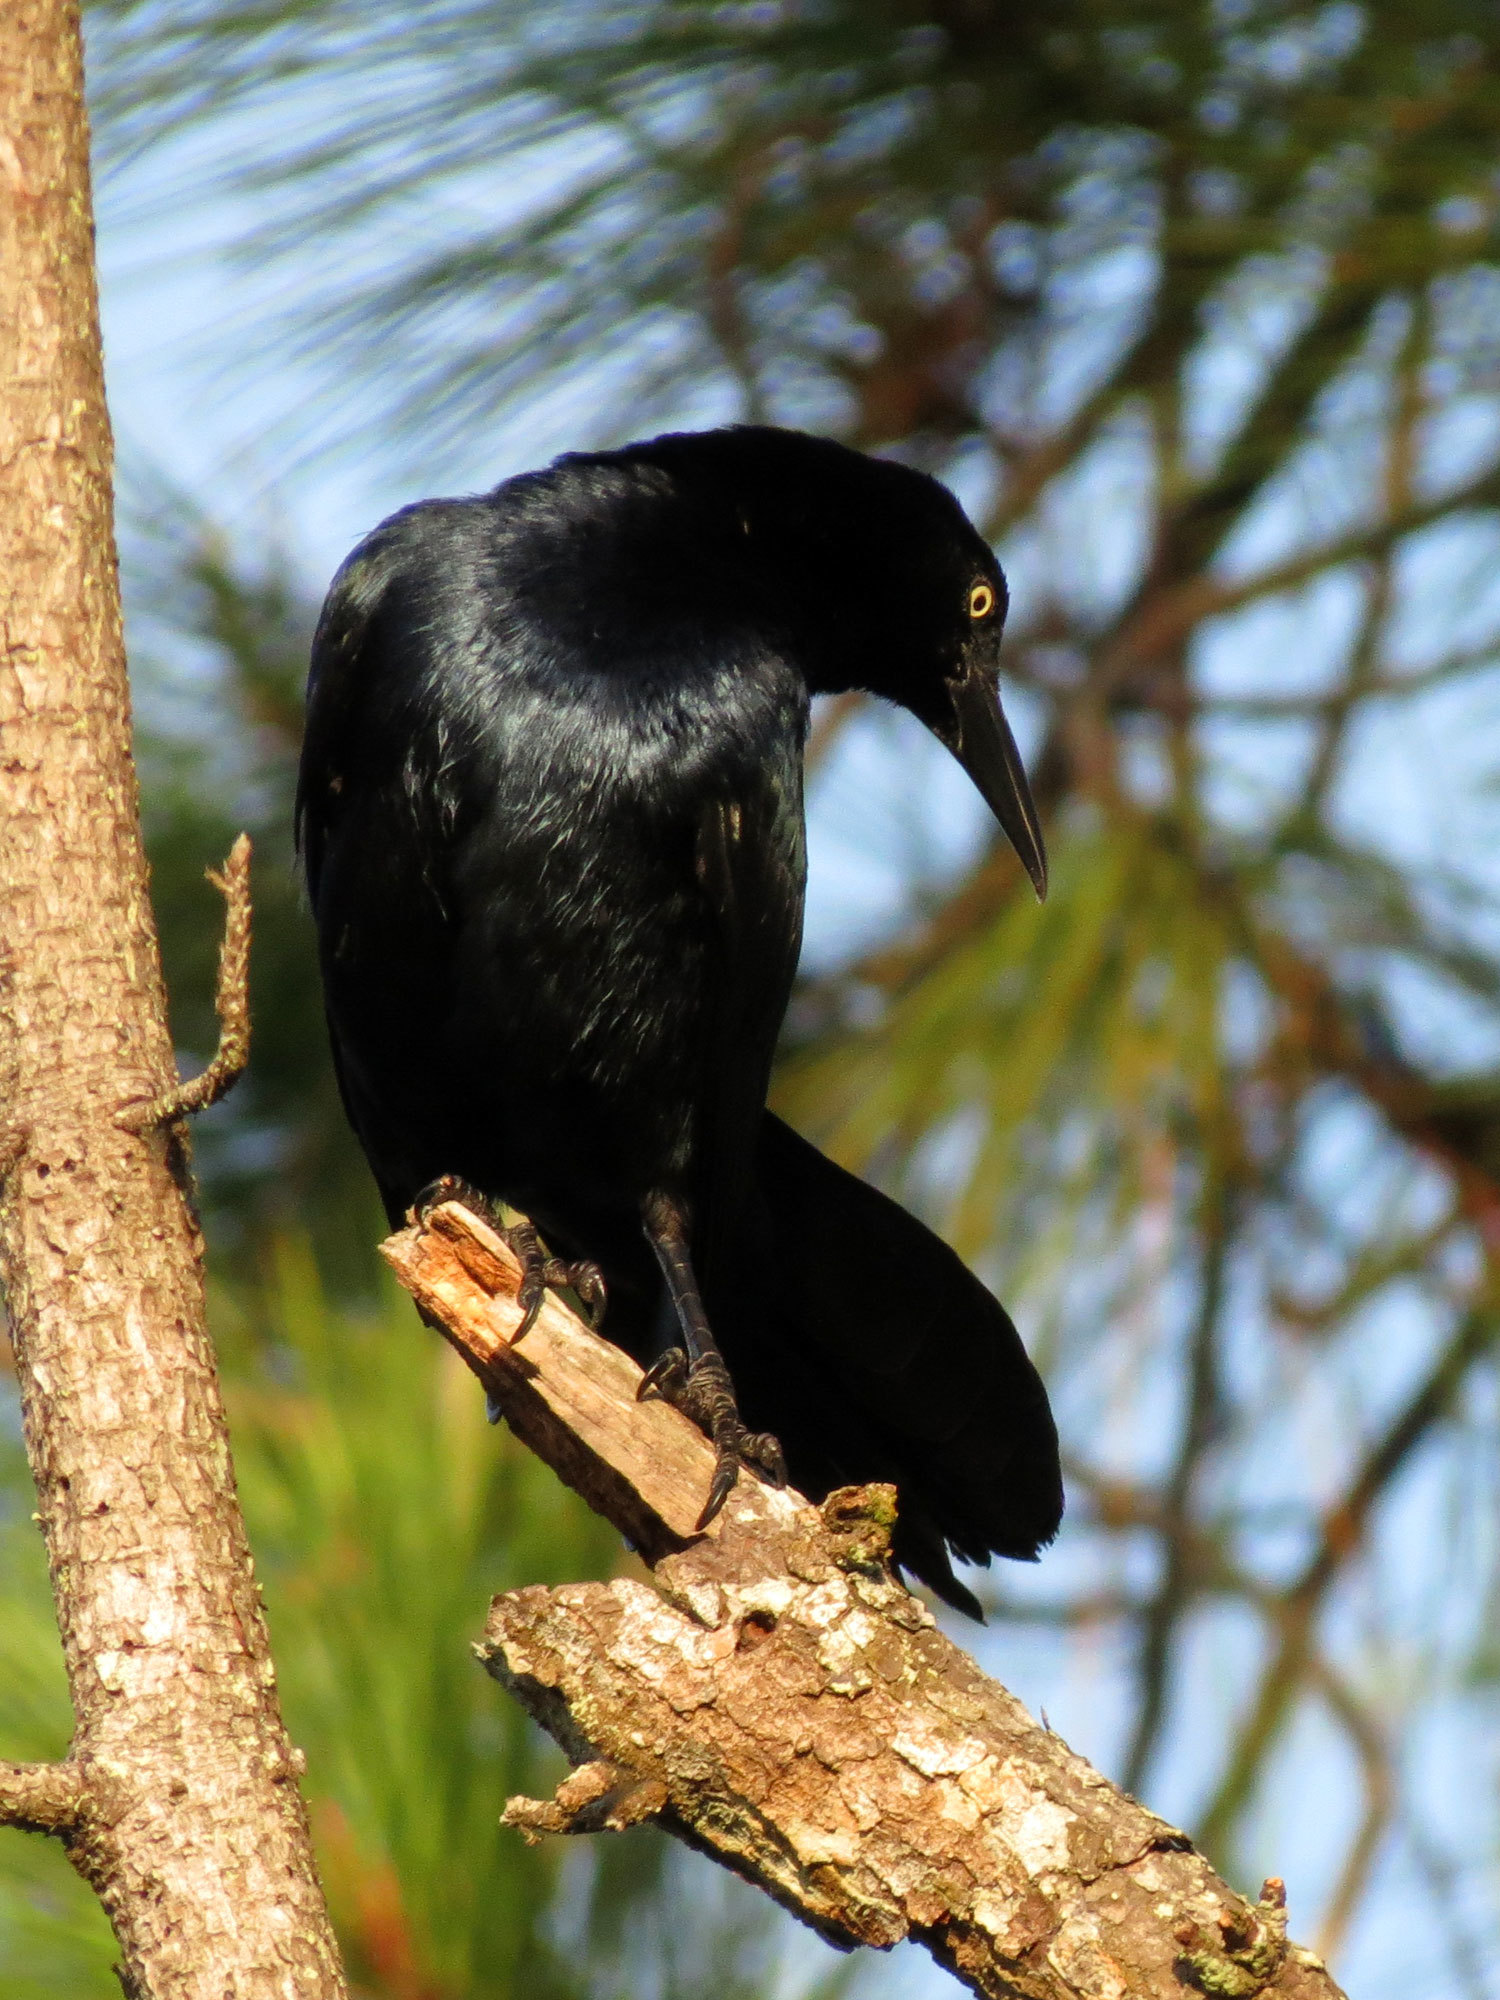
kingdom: Animalia
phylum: Chordata
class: Aves
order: Passeriformes
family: Icteridae
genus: Quiscalus
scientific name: Quiscalus mexicanus
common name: Great-tailed grackle
